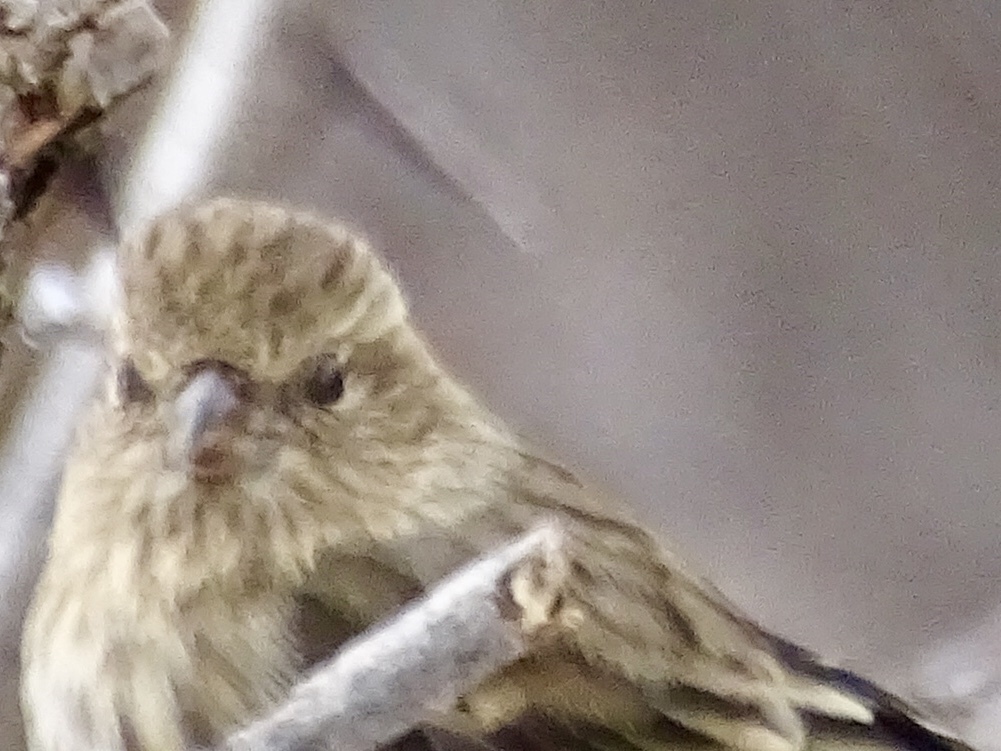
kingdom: Animalia
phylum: Chordata
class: Aves
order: Passeriformes
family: Fringillidae
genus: Spinus
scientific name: Spinus pinus
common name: Pine siskin
